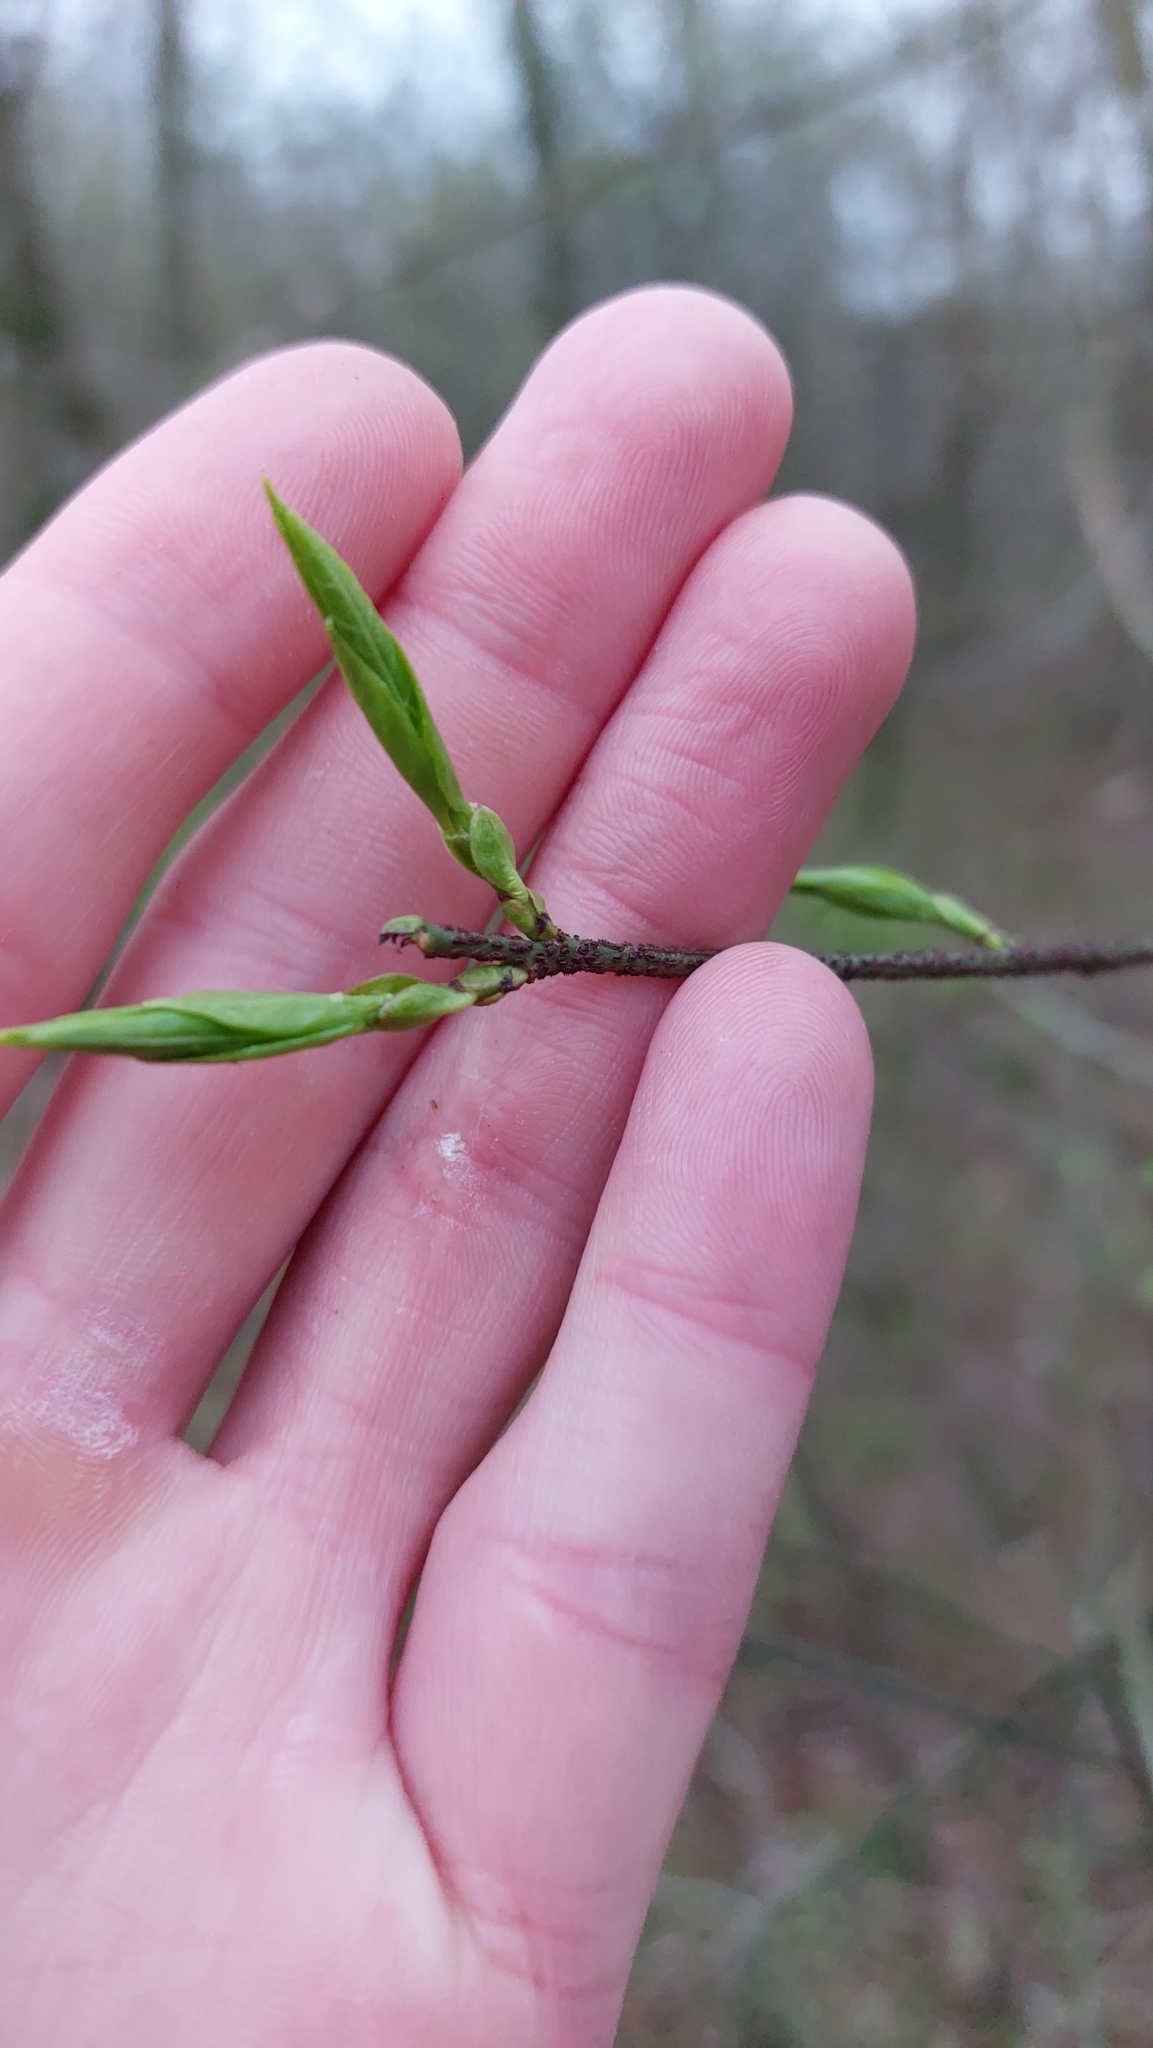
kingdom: Plantae
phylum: Tracheophyta
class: Magnoliopsida
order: Celastrales
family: Celastraceae
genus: Euonymus
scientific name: Euonymus verrucosus
